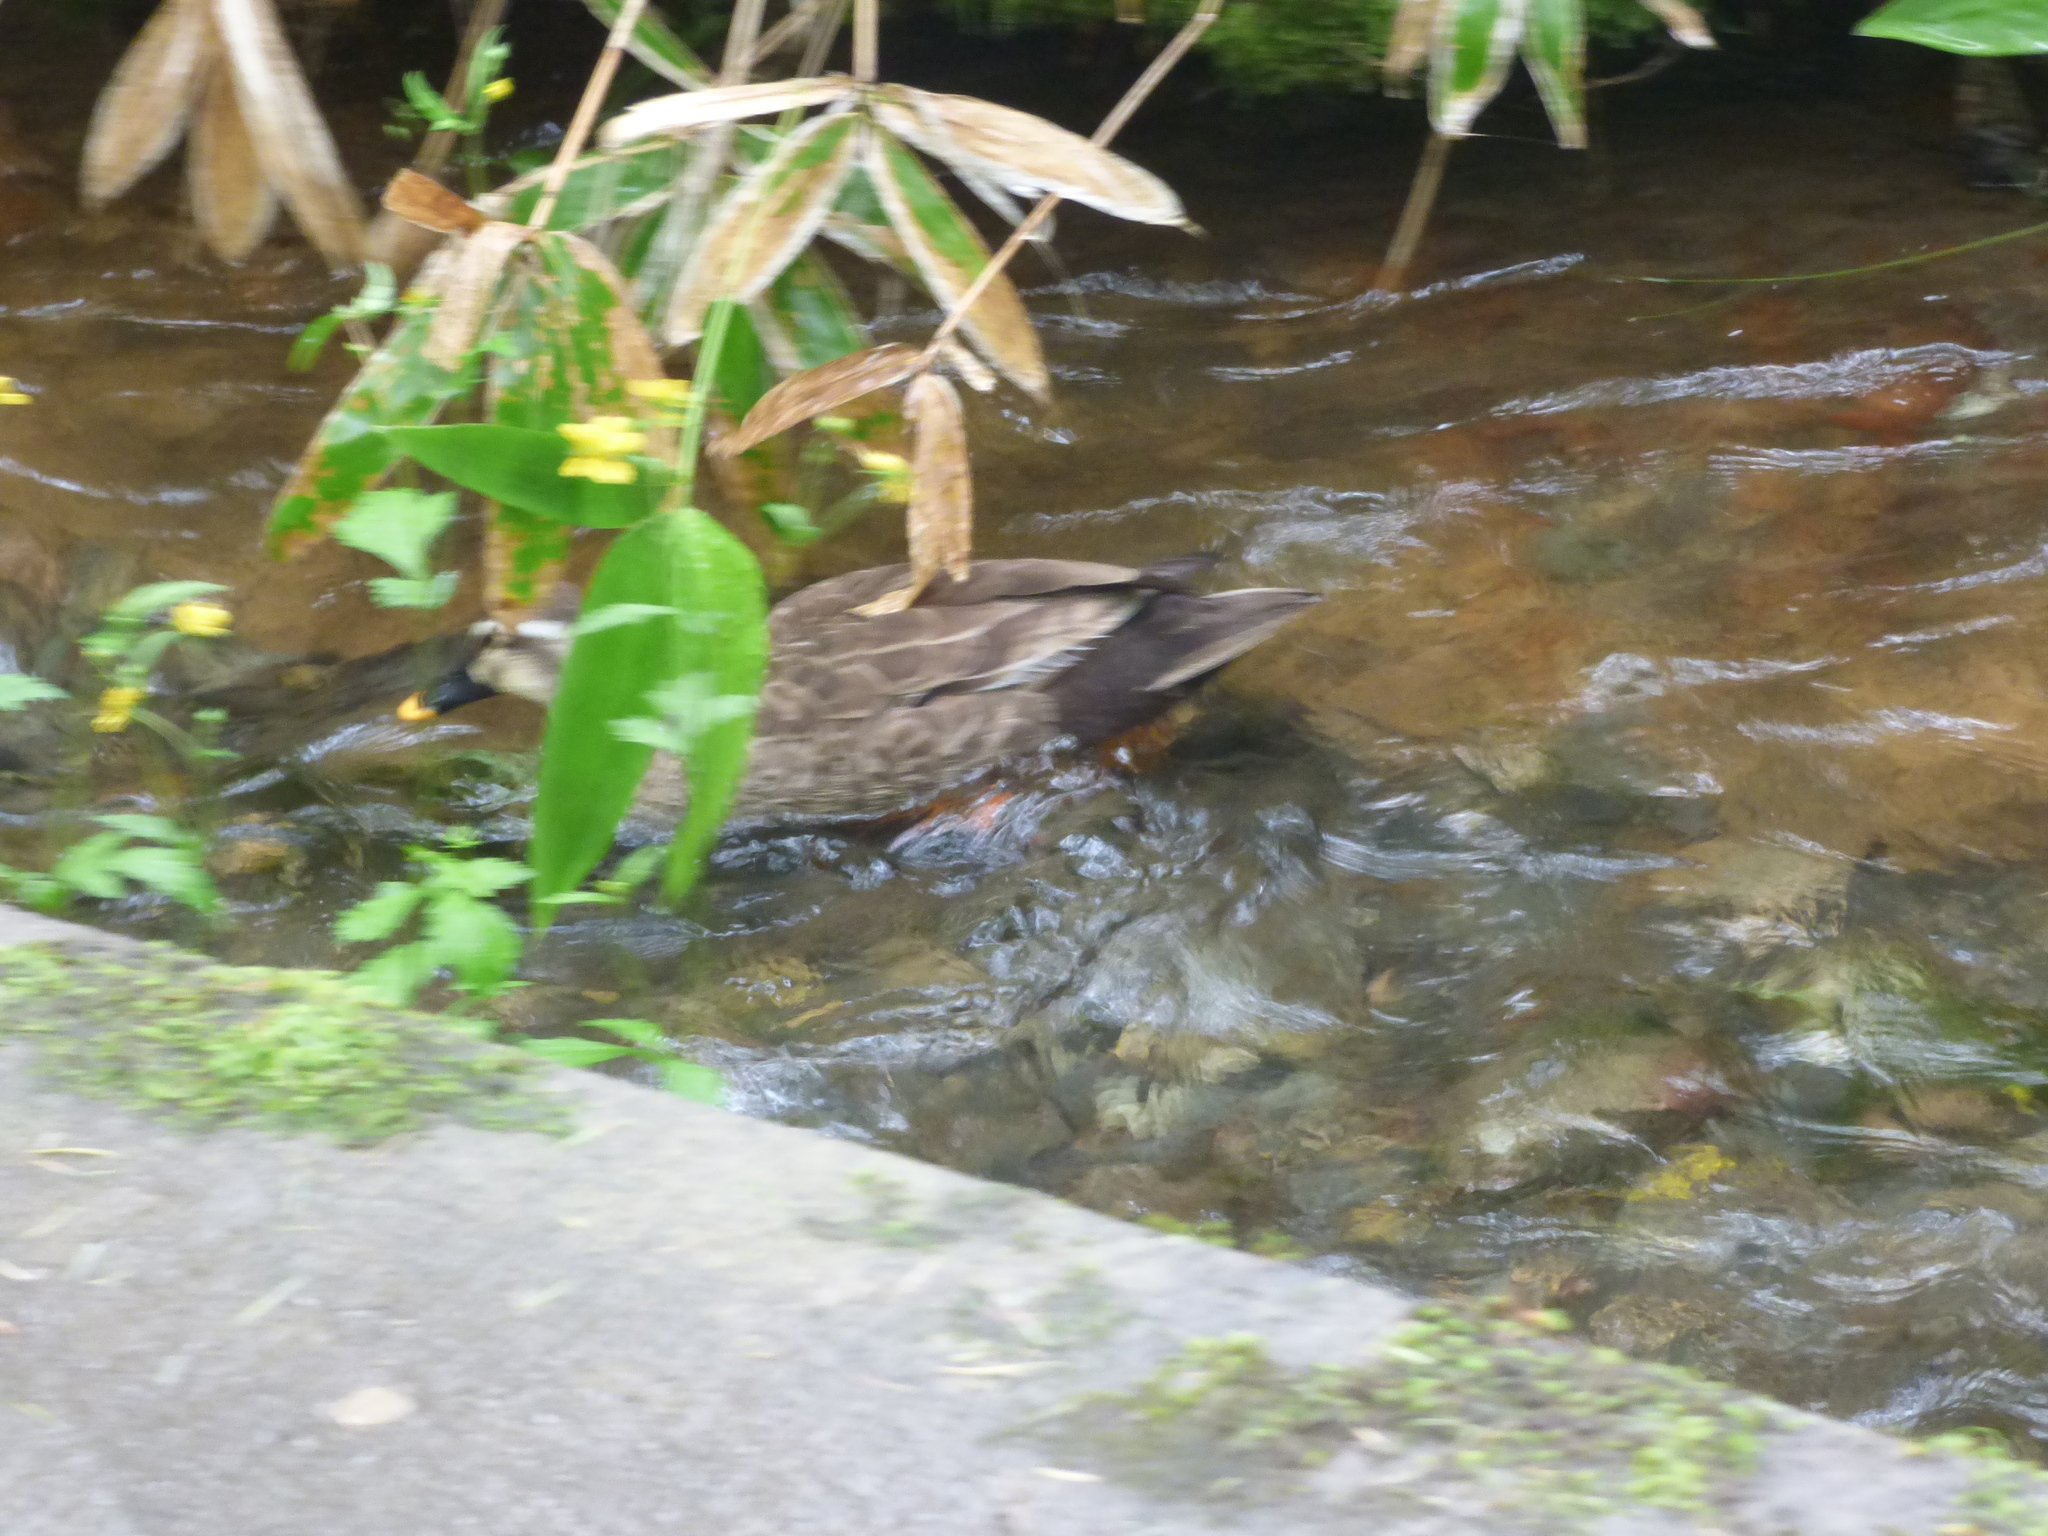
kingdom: Animalia
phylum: Chordata
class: Aves
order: Anseriformes
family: Anatidae
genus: Anas
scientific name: Anas zonorhyncha
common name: Eastern spot-billed duck
